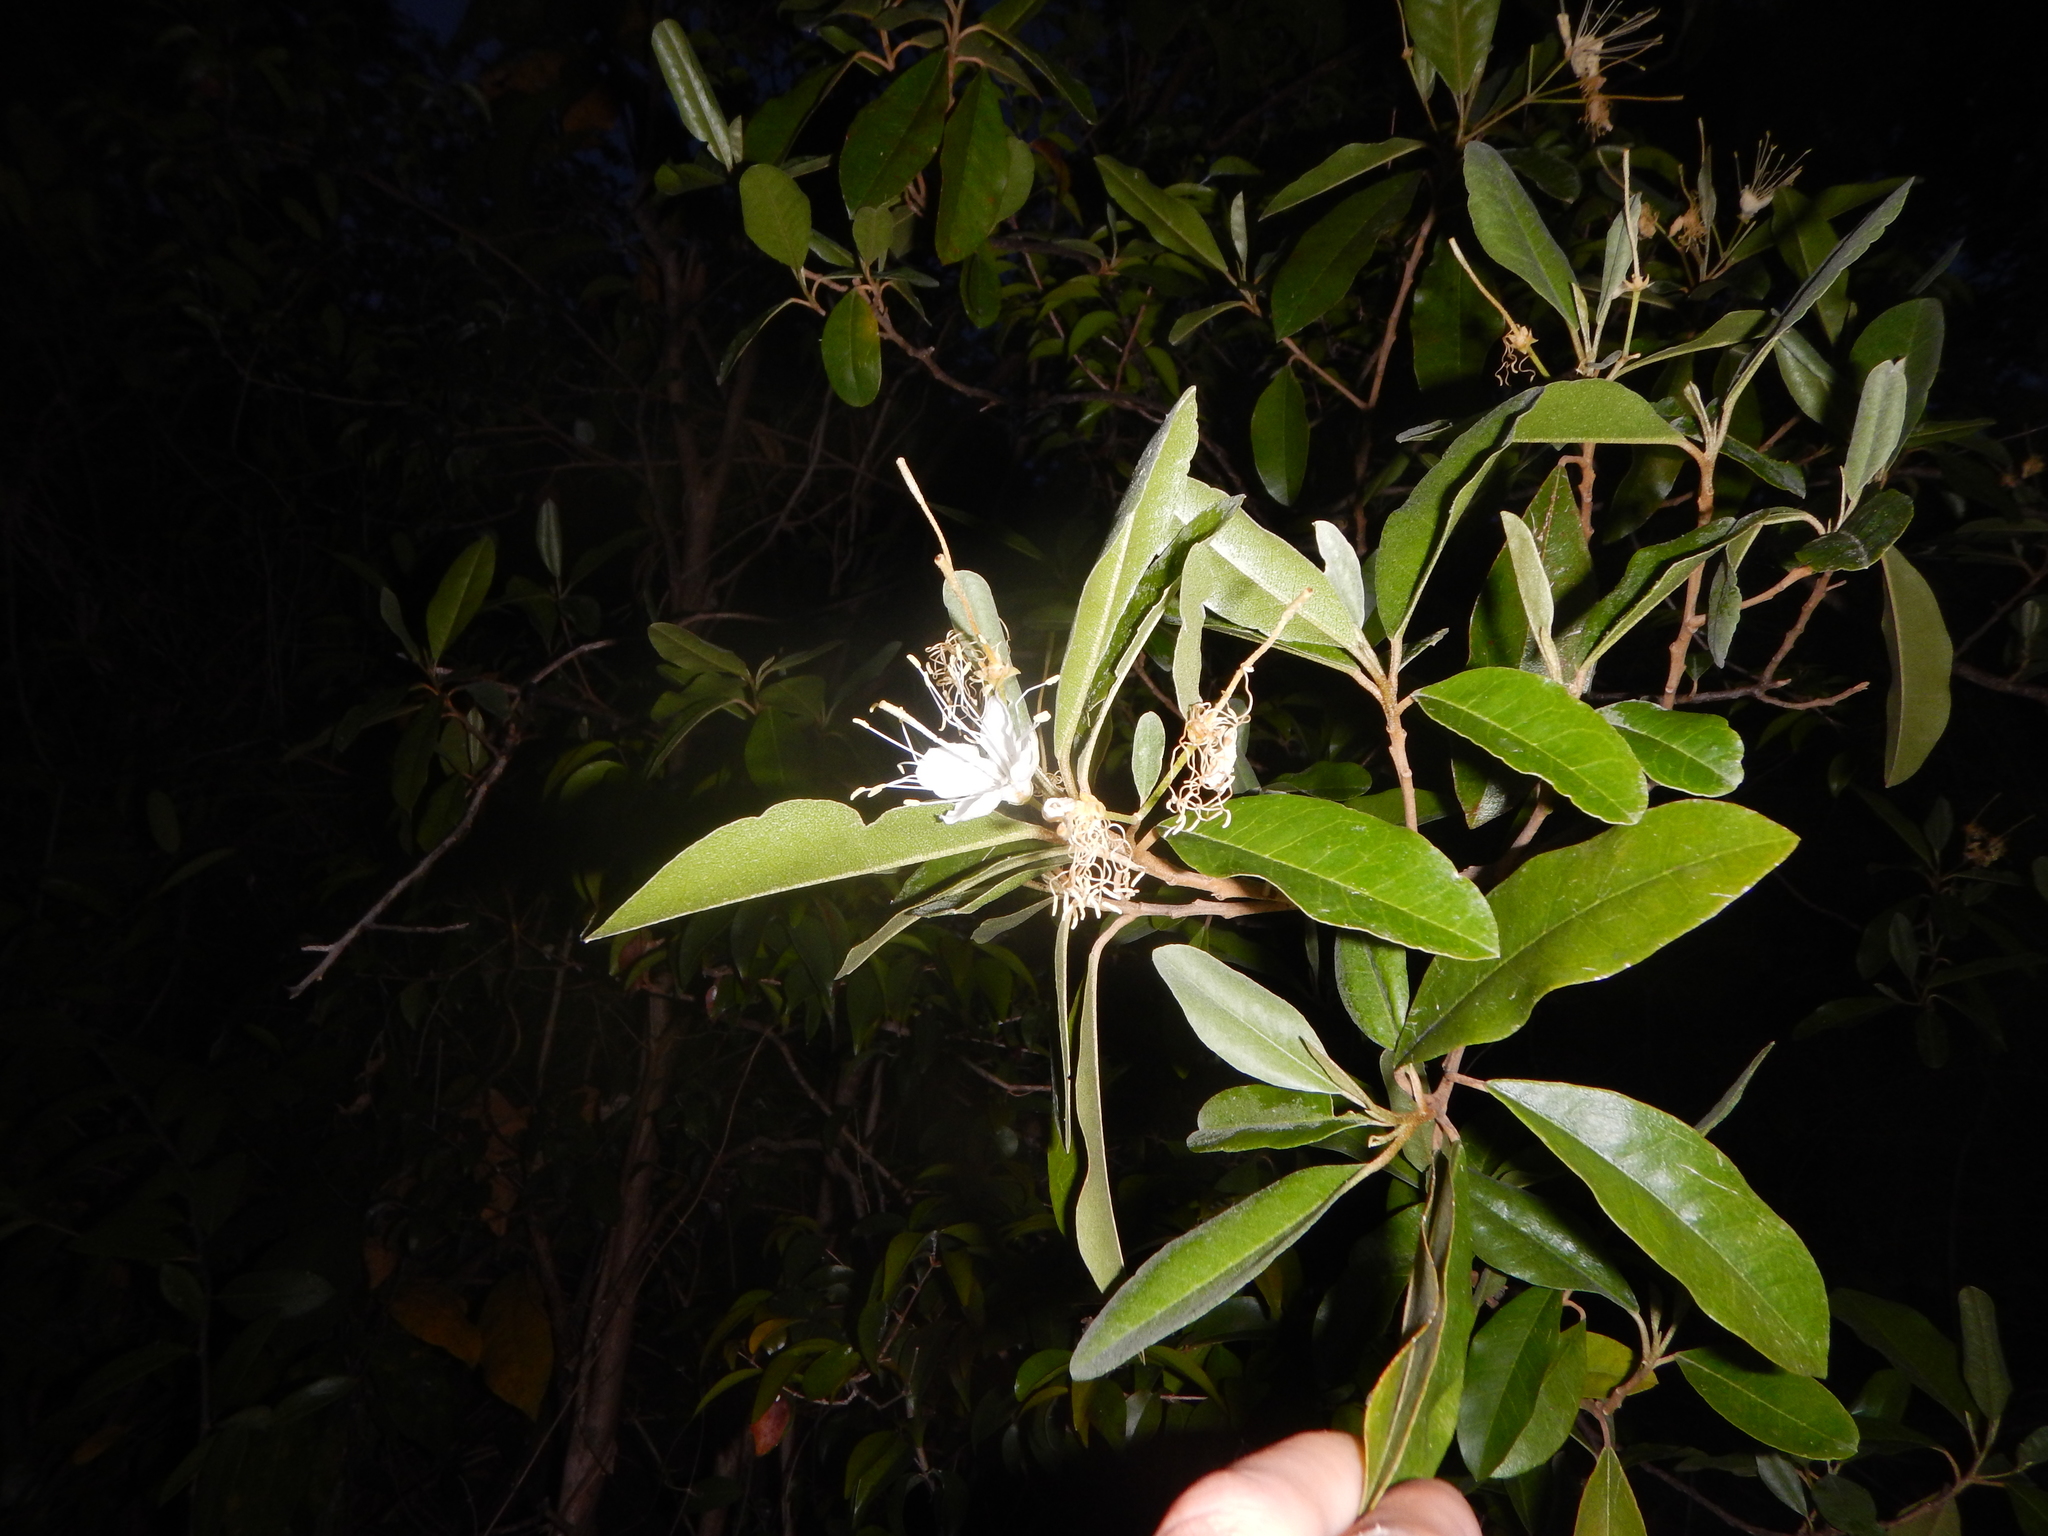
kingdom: Plantae
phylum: Tracheophyta
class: Magnoliopsida
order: Brassicales
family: Capparaceae
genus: Quadrella
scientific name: Quadrella indica
